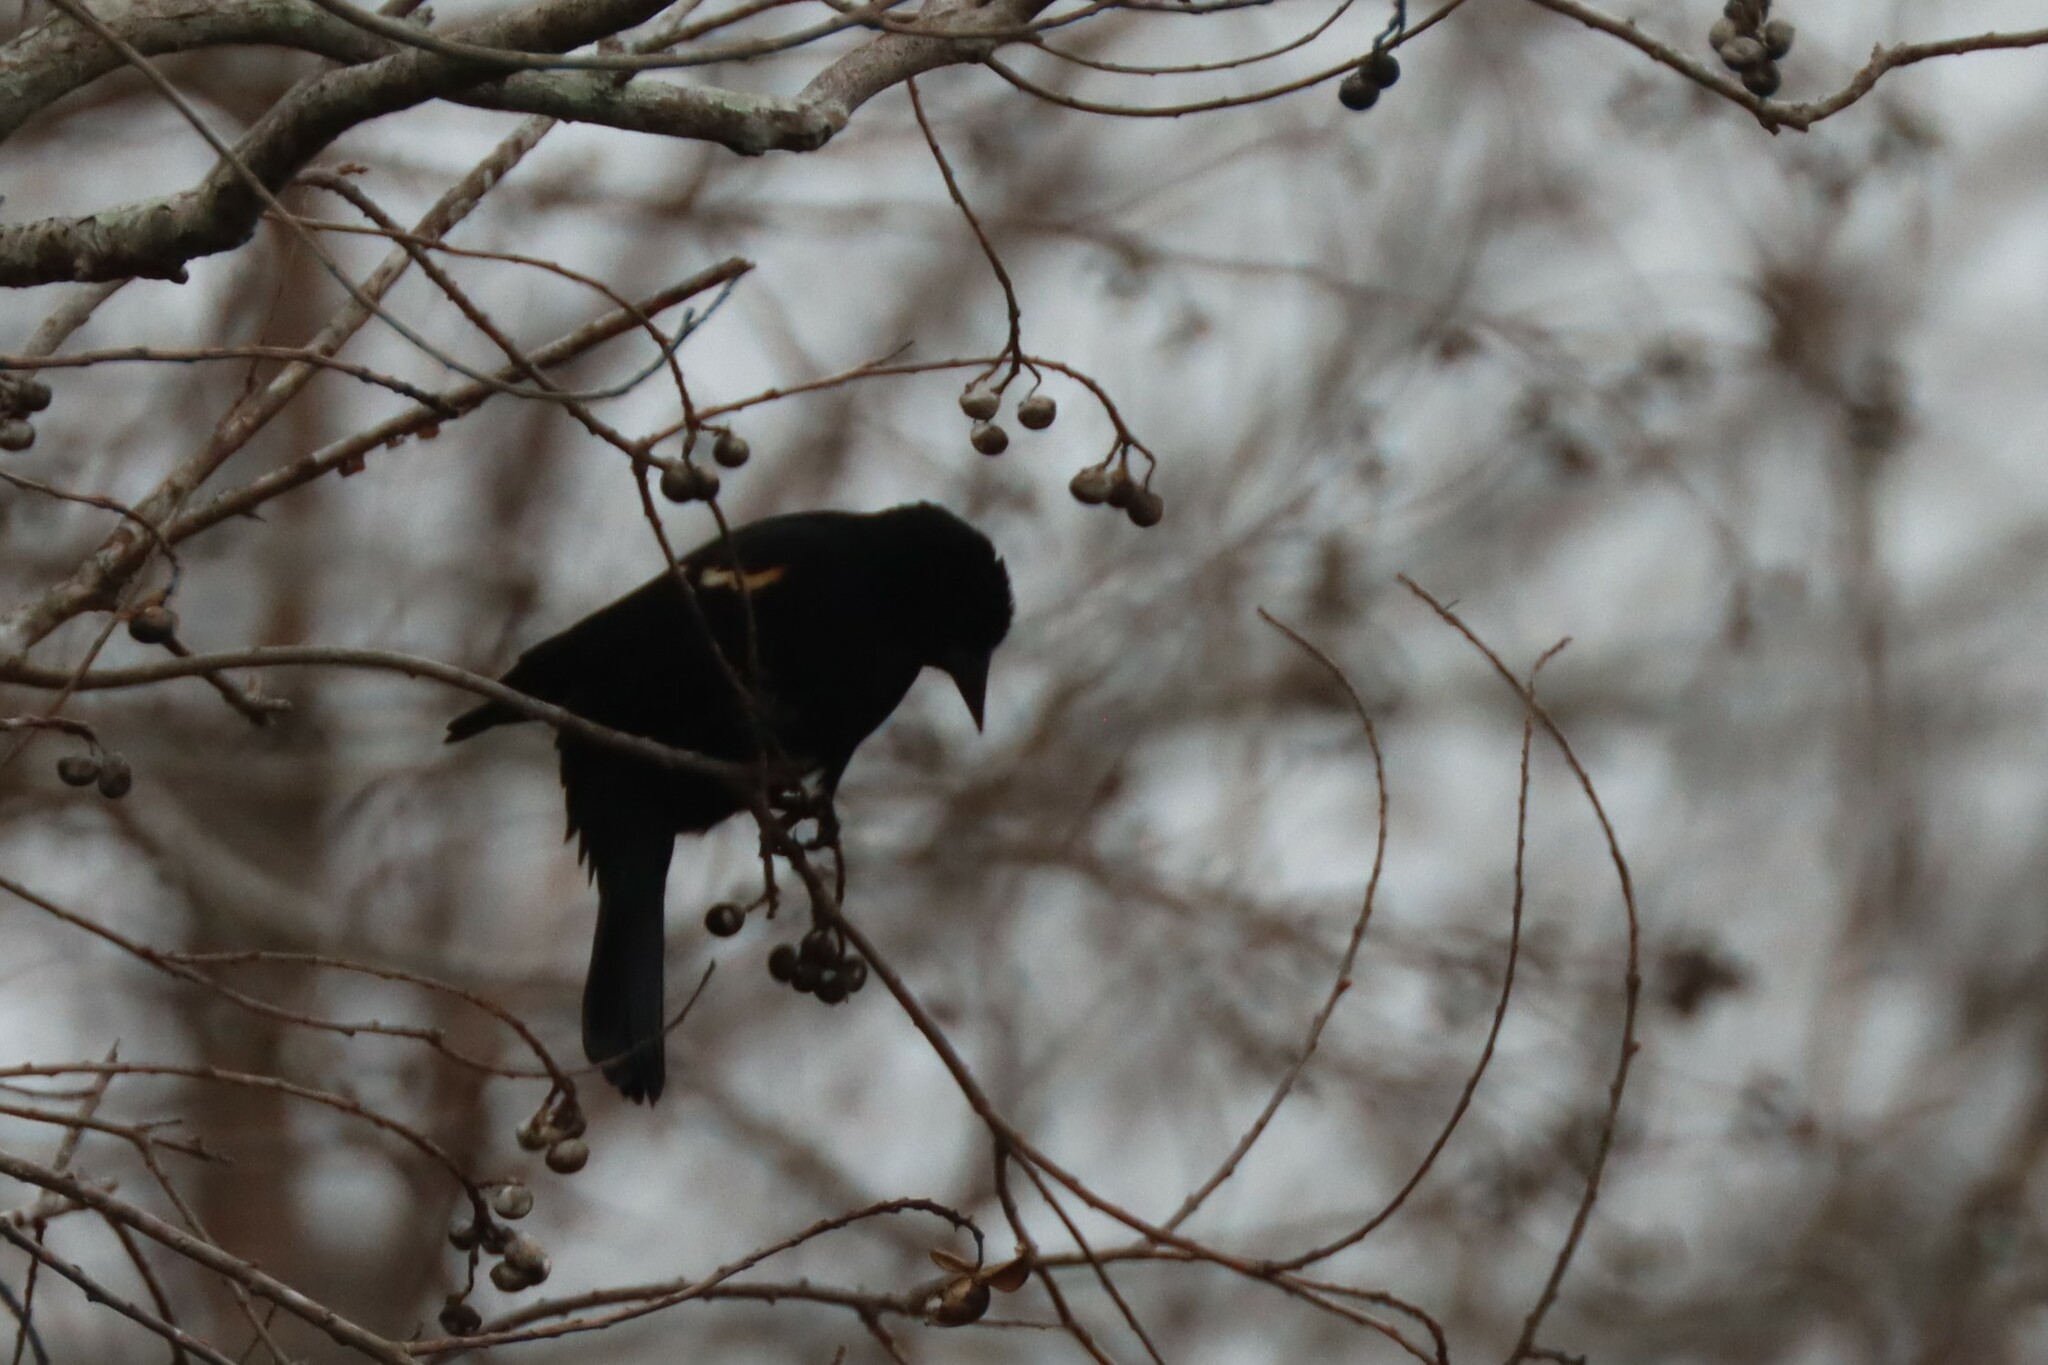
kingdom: Animalia
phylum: Chordata
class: Aves
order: Passeriformes
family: Icteridae
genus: Agelaius
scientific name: Agelaius phoeniceus
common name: Red-winged blackbird
